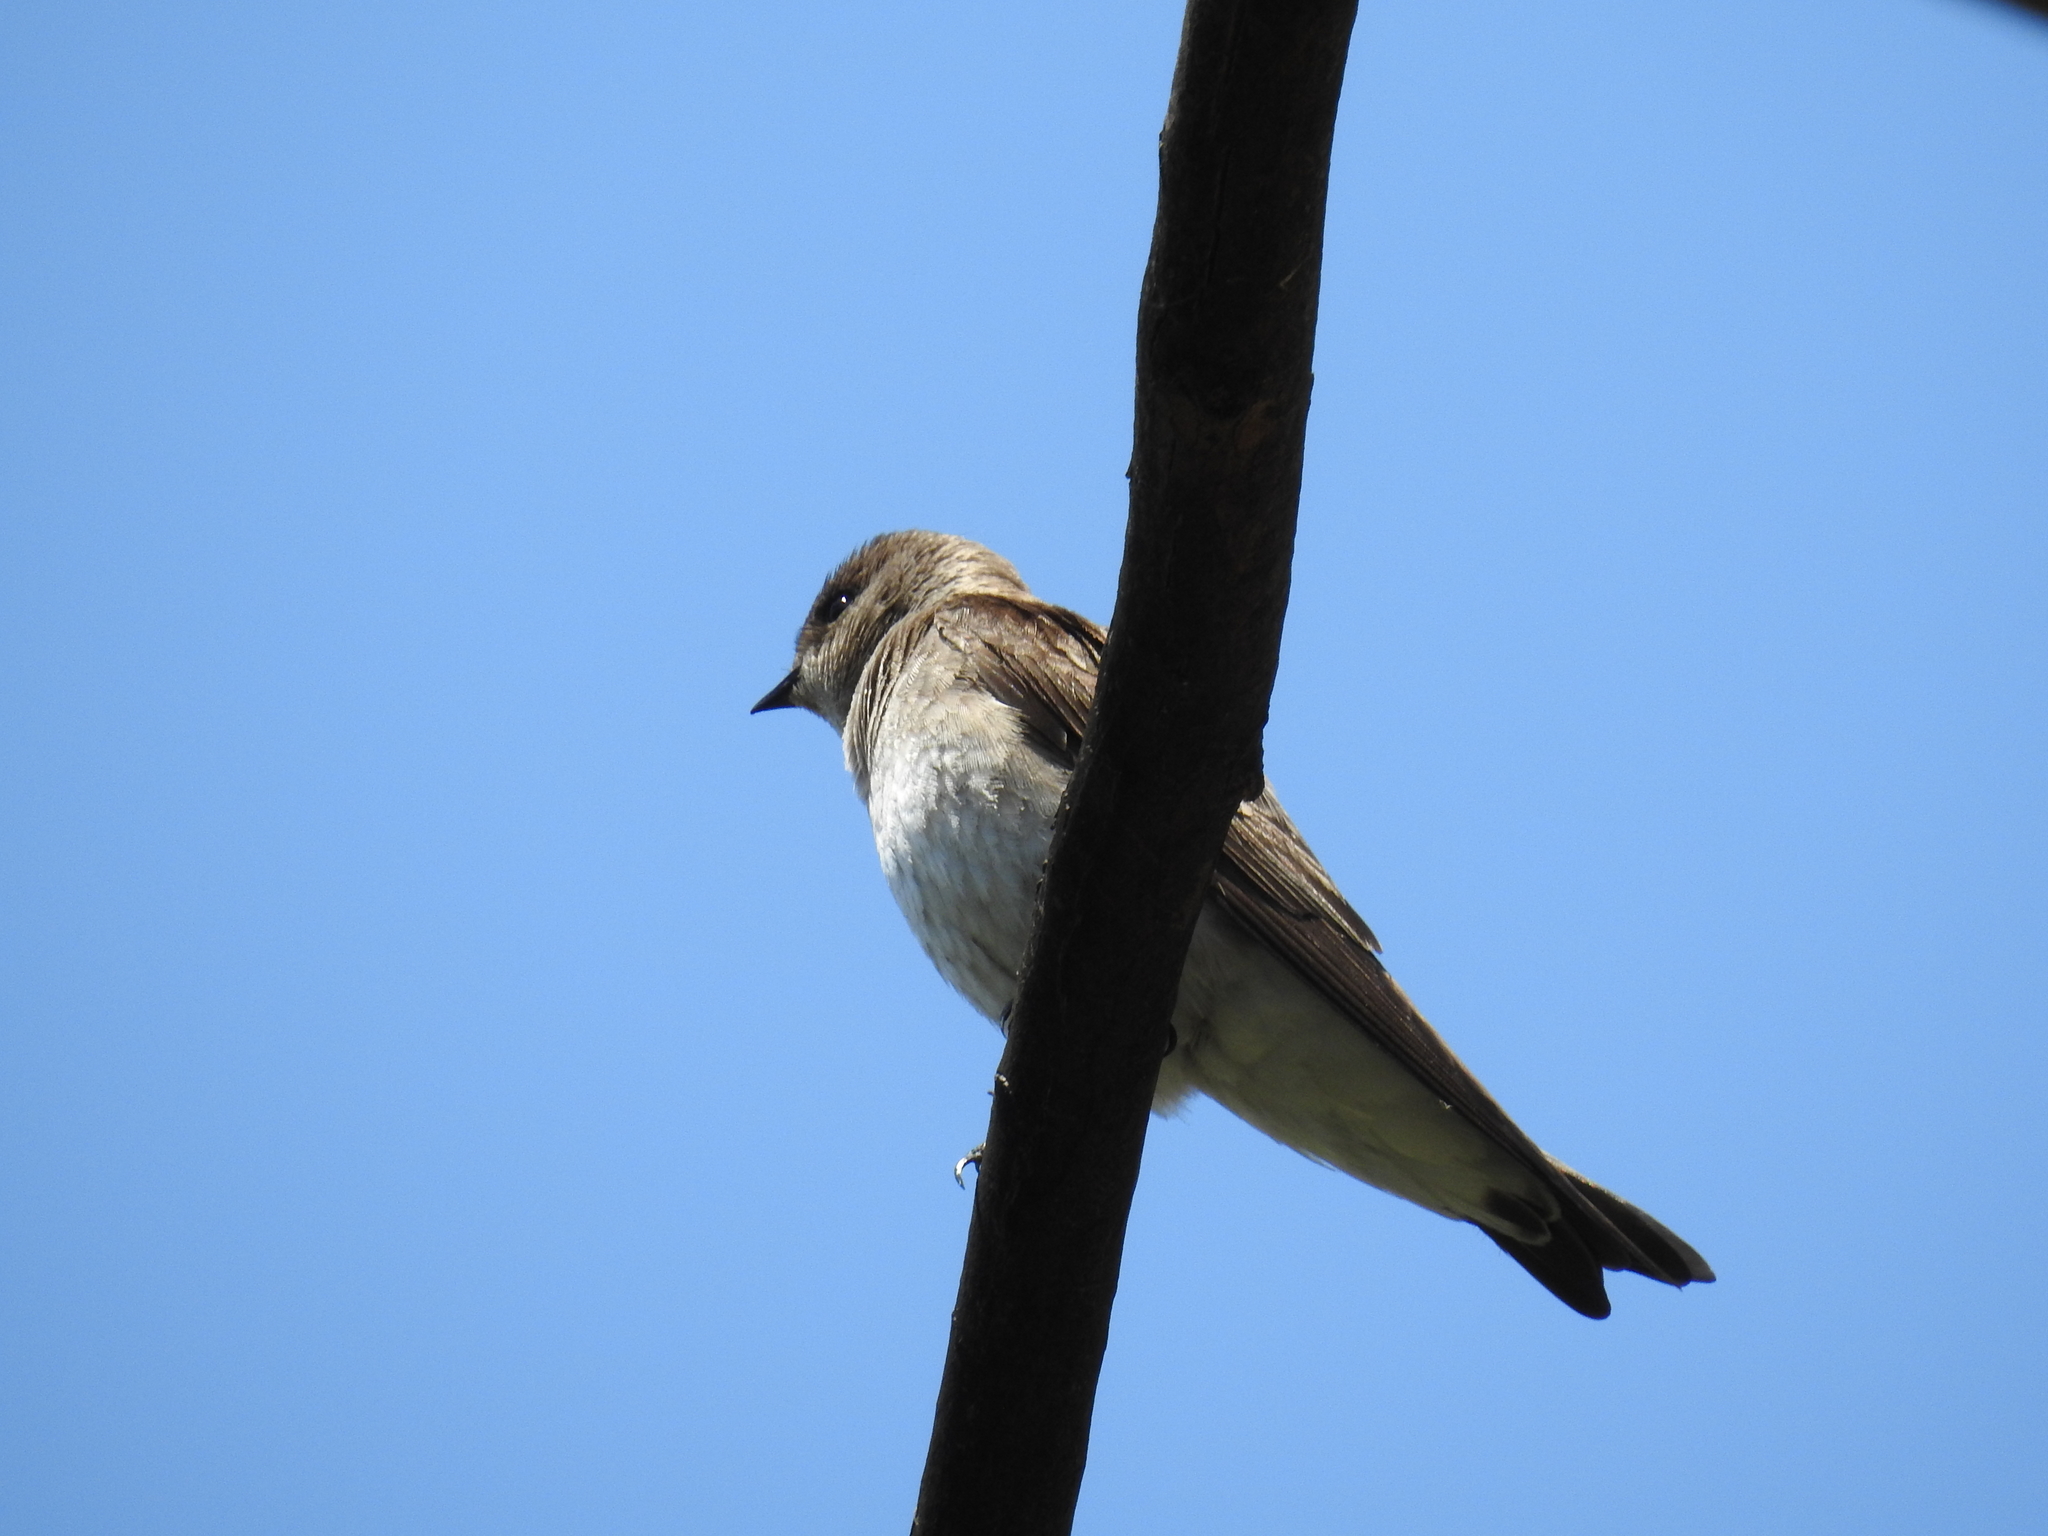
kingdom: Animalia
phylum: Chordata
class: Aves
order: Passeriformes
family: Hirundinidae
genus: Stelgidopteryx
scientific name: Stelgidopteryx serripennis
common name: Northern rough-winged swallow
